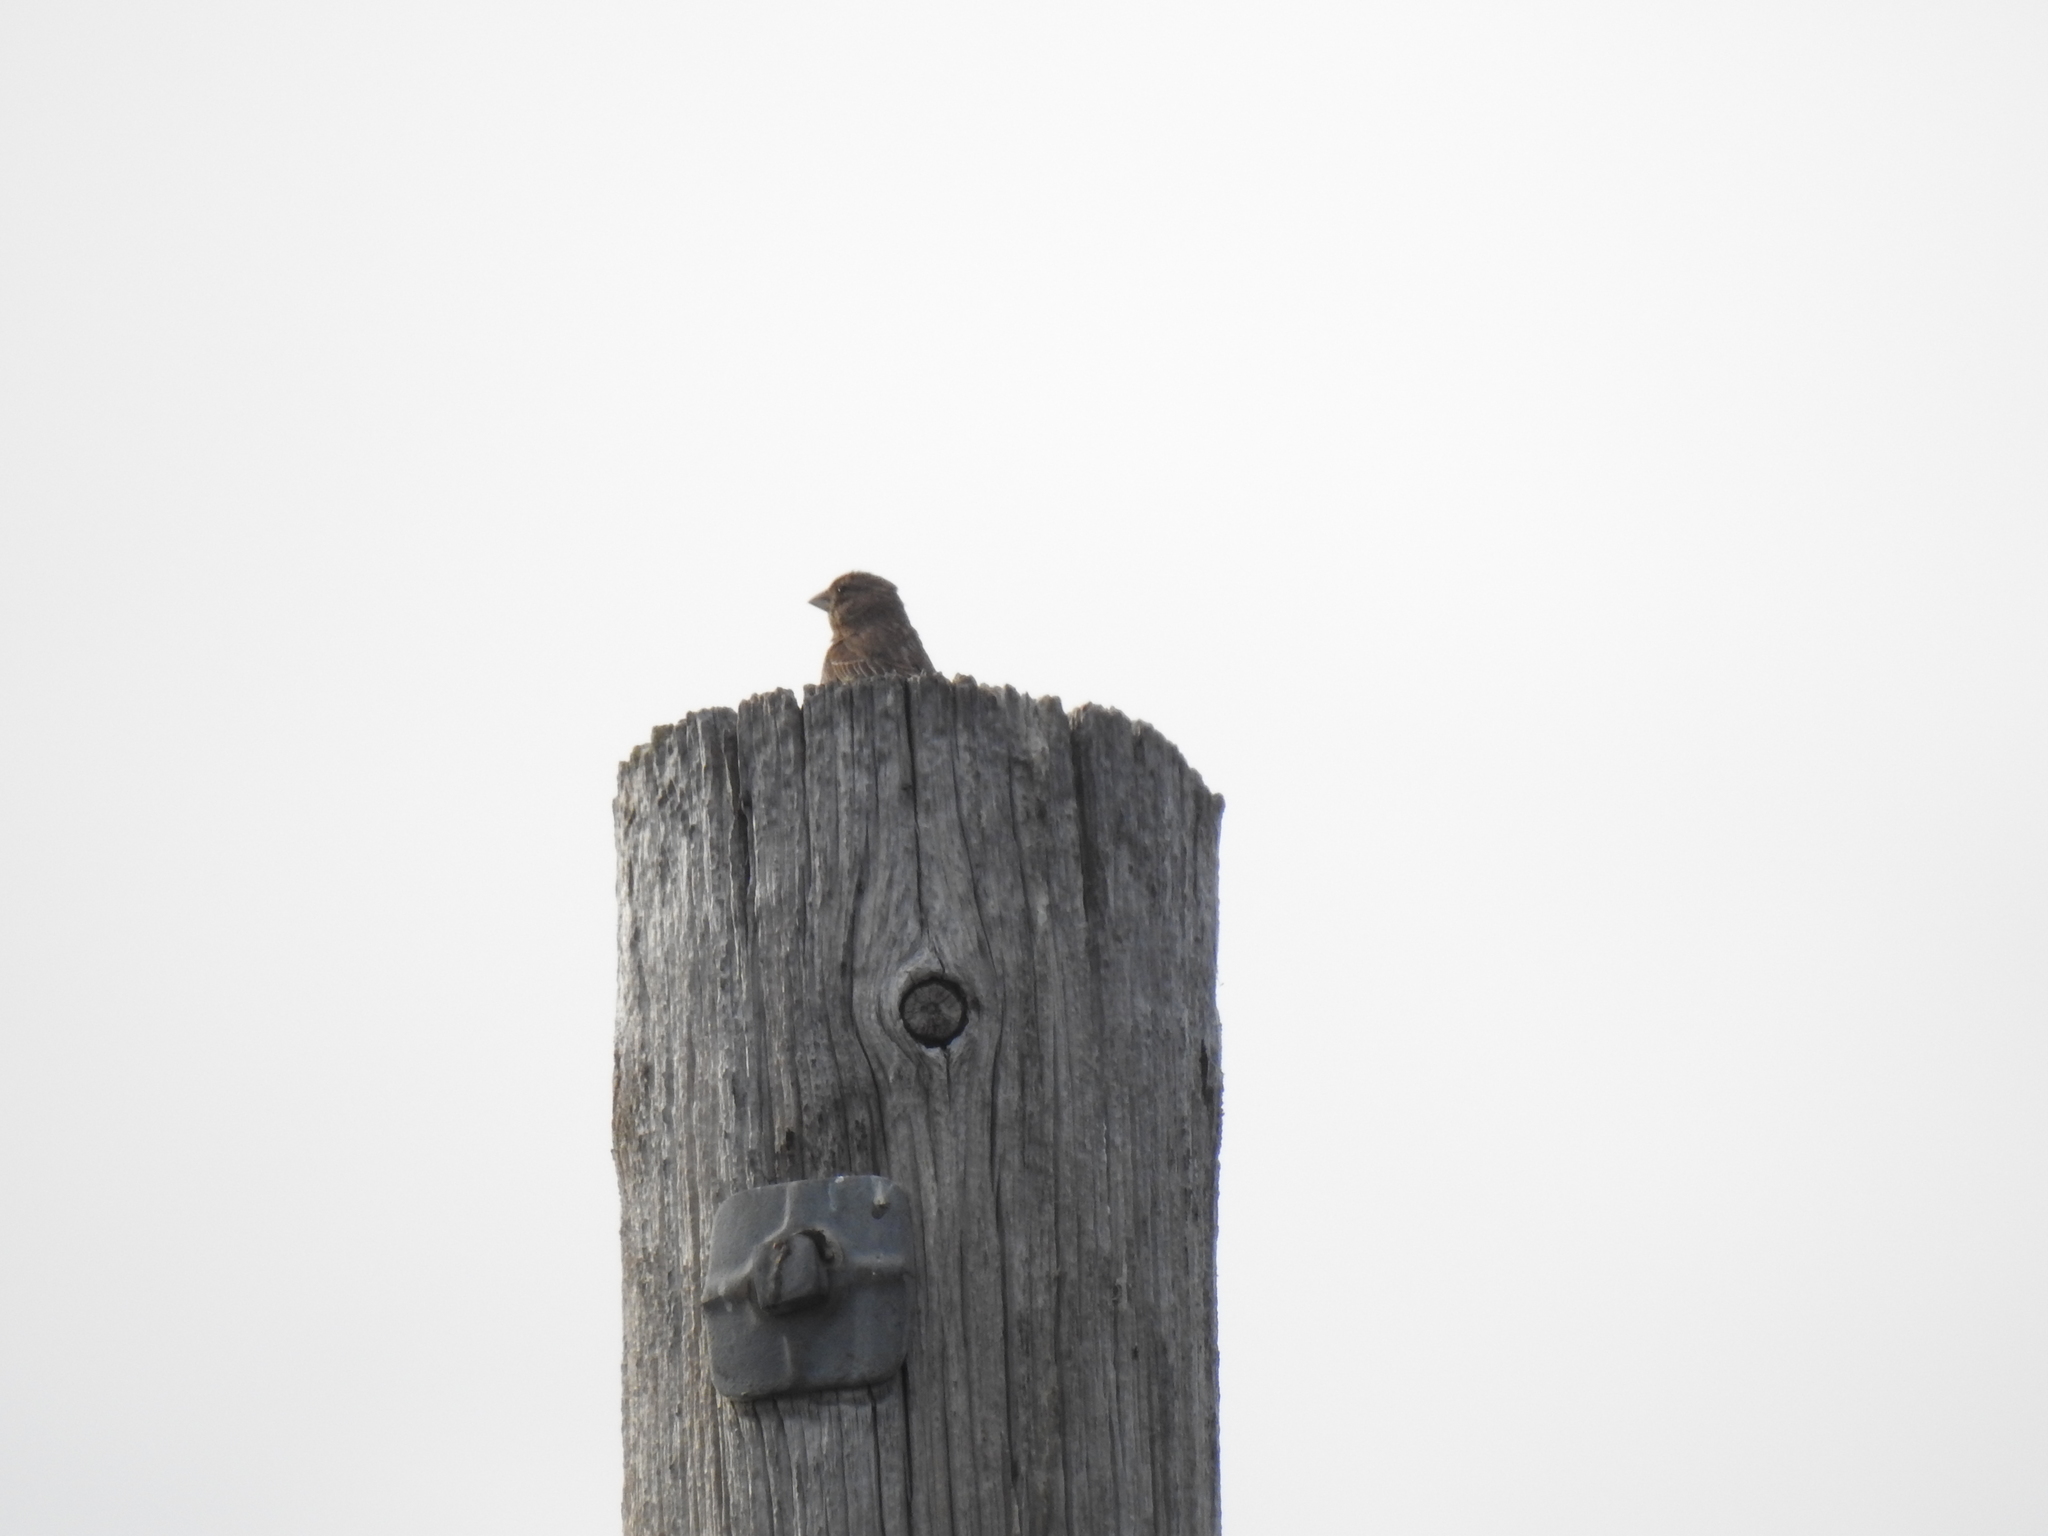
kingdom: Animalia
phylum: Chordata
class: Aves
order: Passeriformes
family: Fringillidae
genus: Haemorhous
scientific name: Haemorhous mexicanus
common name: House finch
